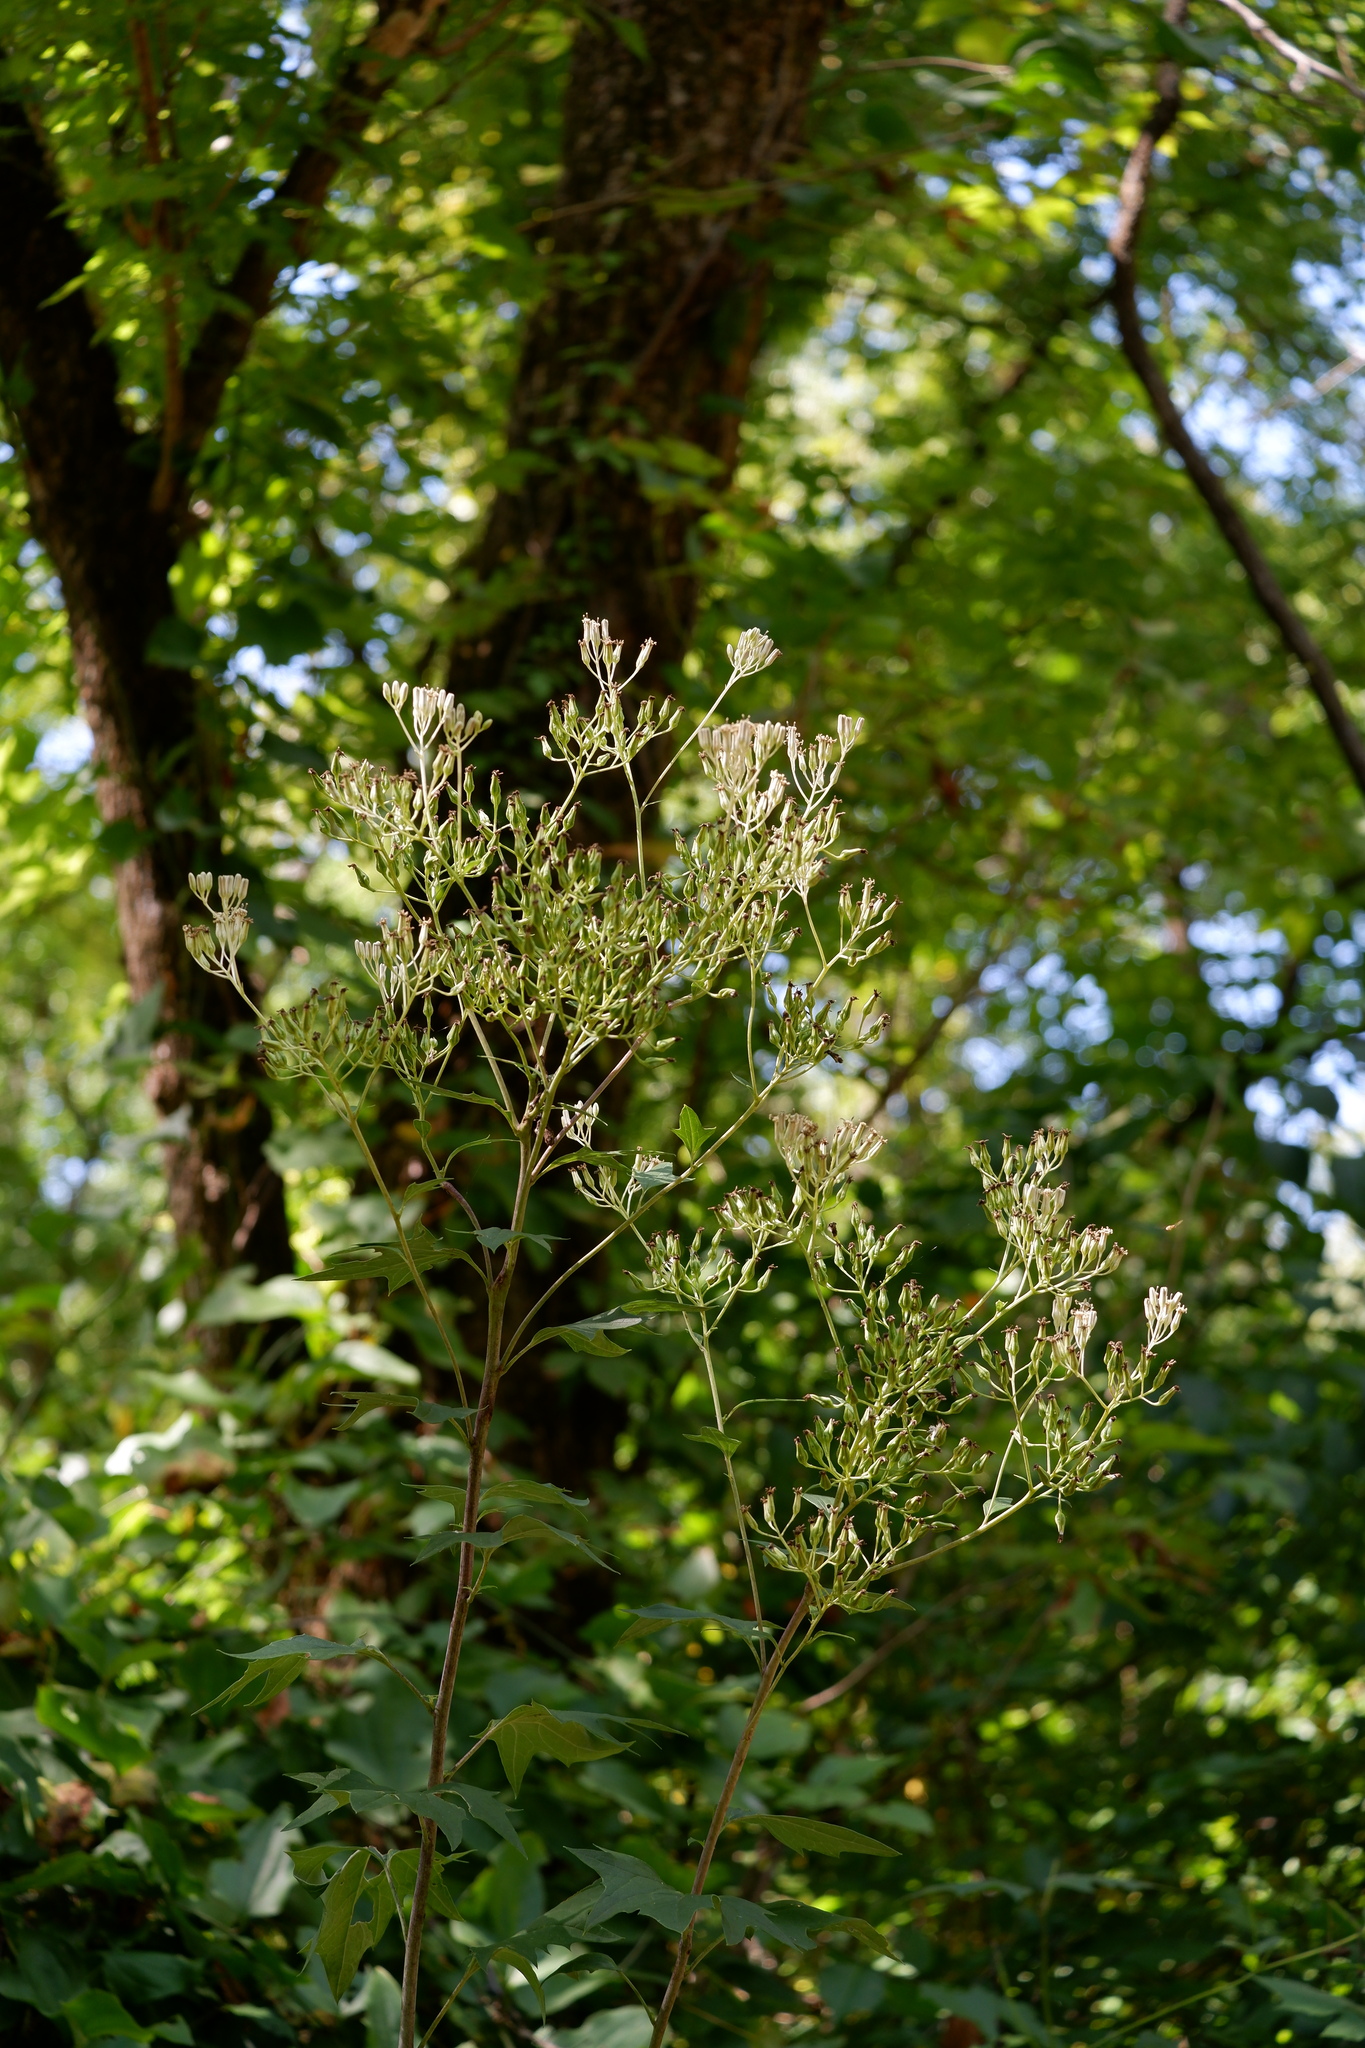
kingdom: Plantae
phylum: Tracheophyta
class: Magnoliopsida
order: Asterales
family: Asteraceae
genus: Arnoglossum
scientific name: Arnoglossum atriplicifolium
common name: Pale indian-plantain
